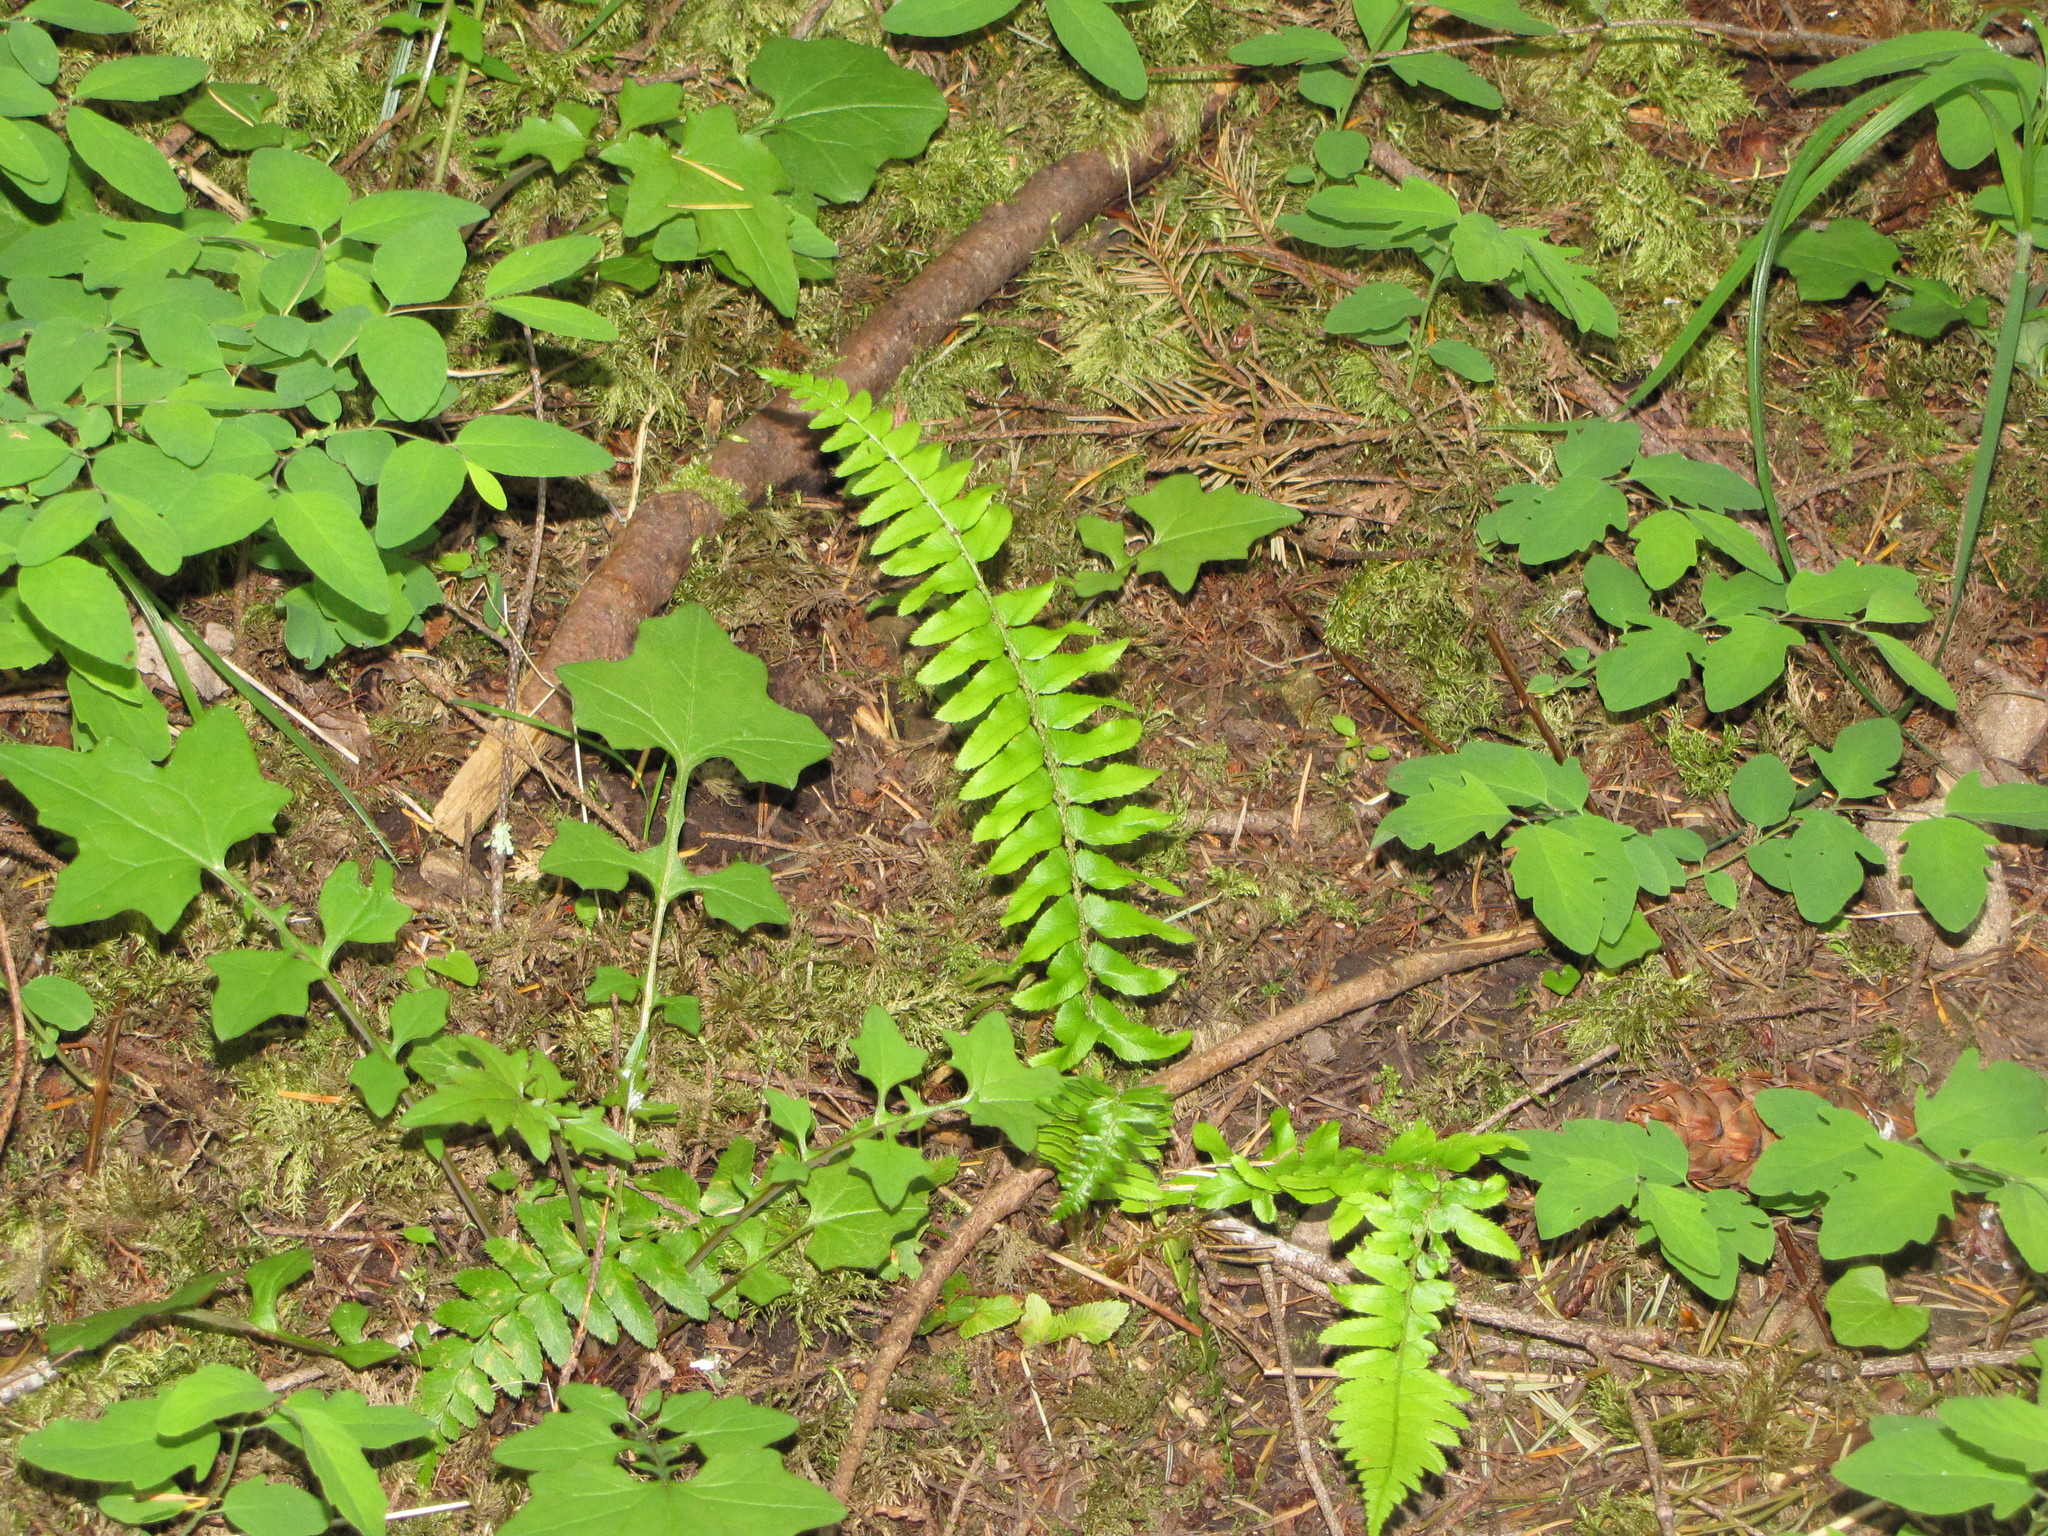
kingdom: Plantae
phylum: Tracheophyta
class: Polypodiopsida
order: Polypodiales
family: Dryopteridaceae
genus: Polystichum
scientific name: Polystichum munitum
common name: Western sword-fern
